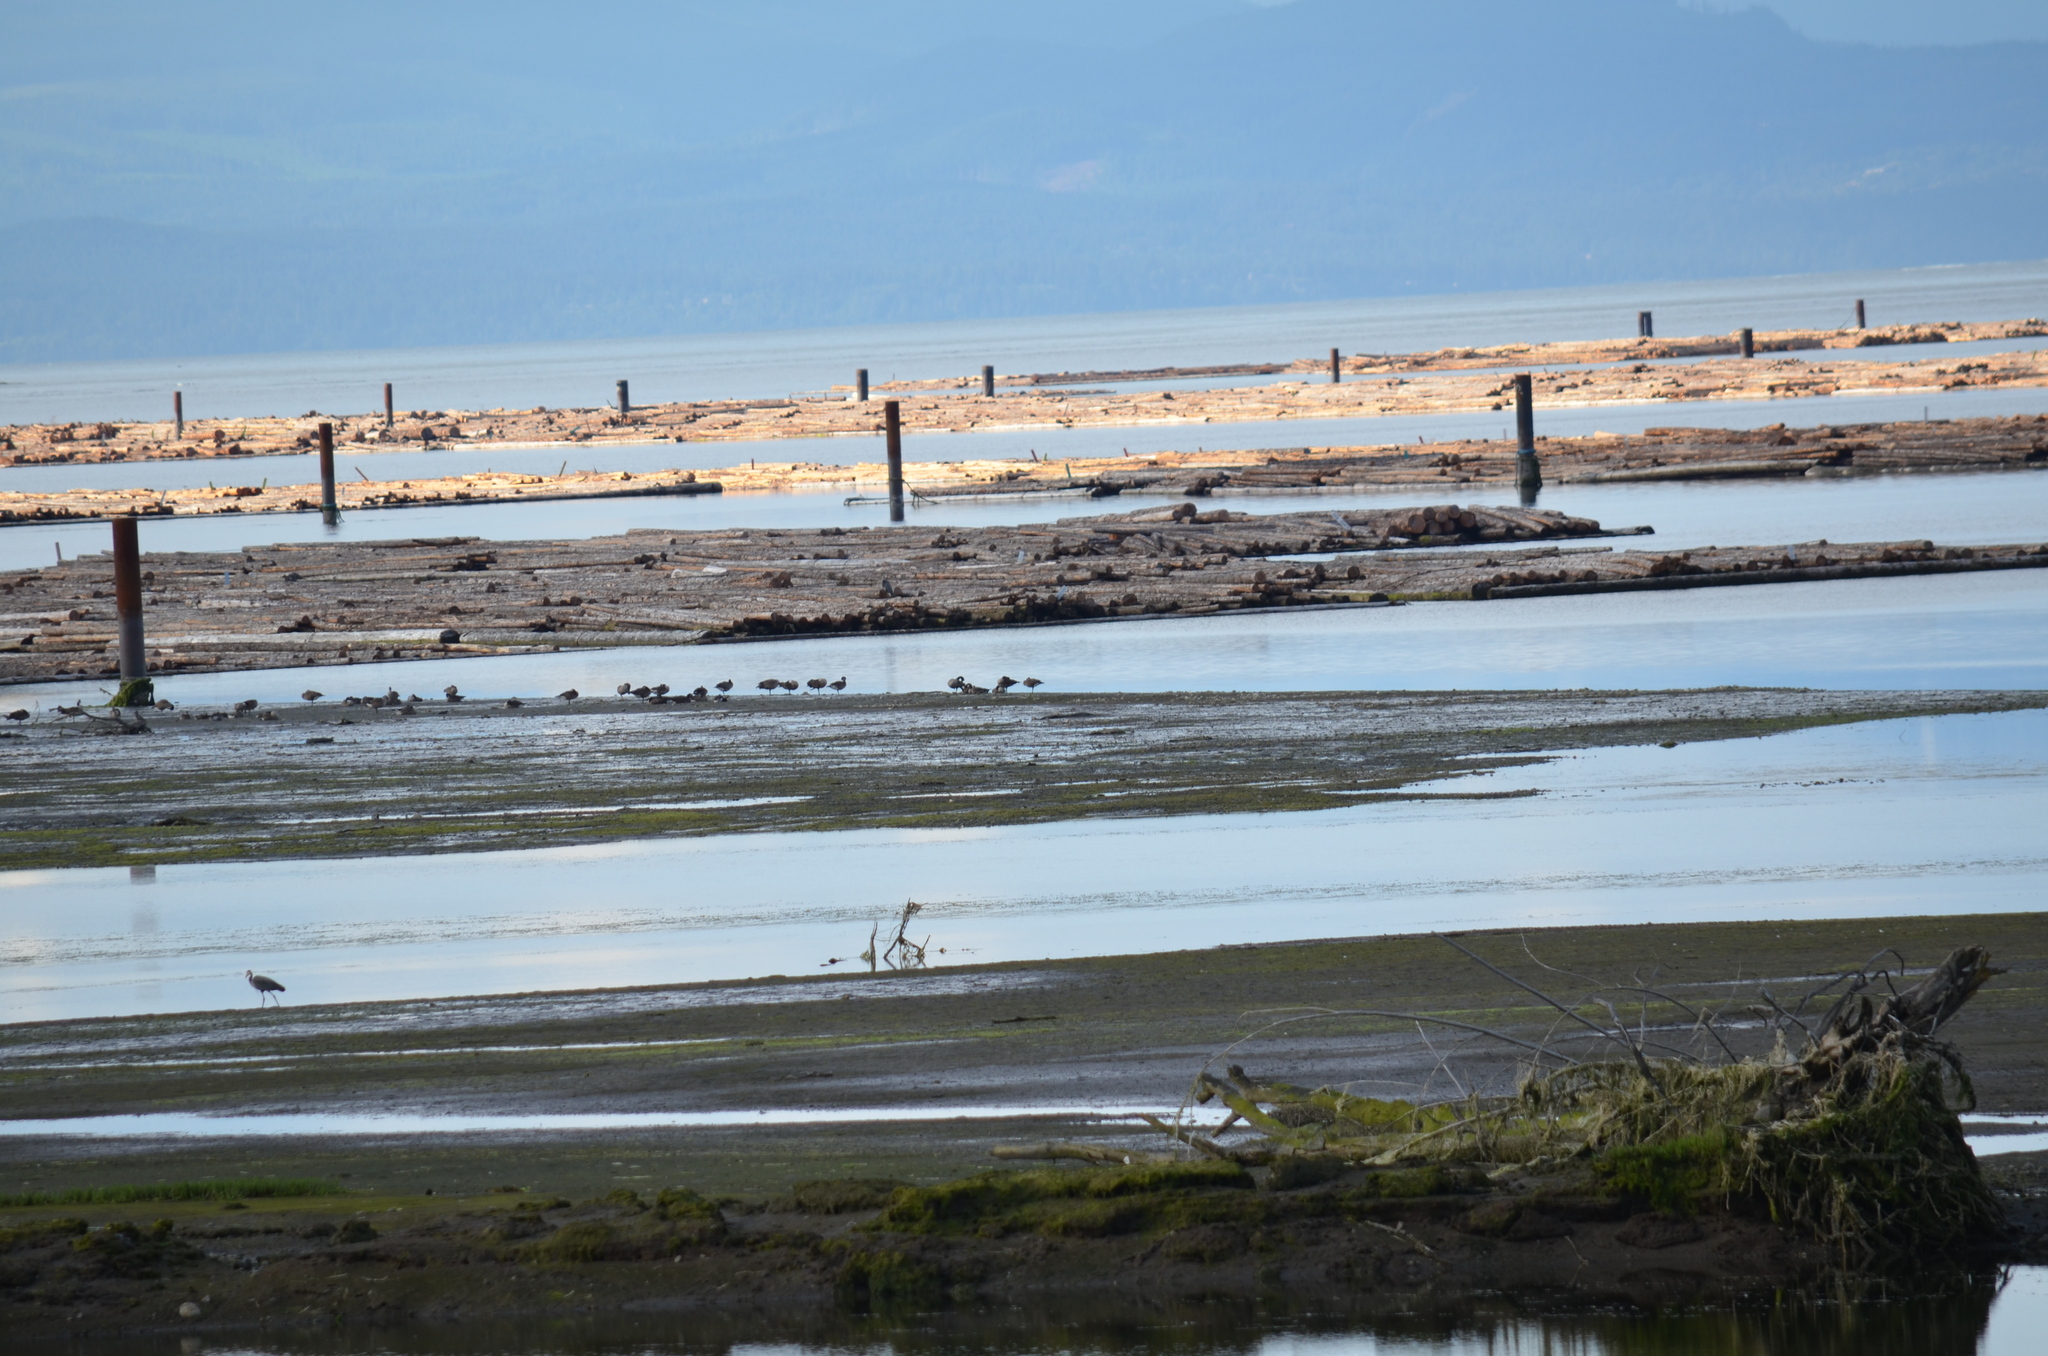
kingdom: Animalia
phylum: Chordata
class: Aves
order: Anseriformes
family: Anatidae
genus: Branta
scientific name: Branta canadensis
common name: Canada goose
